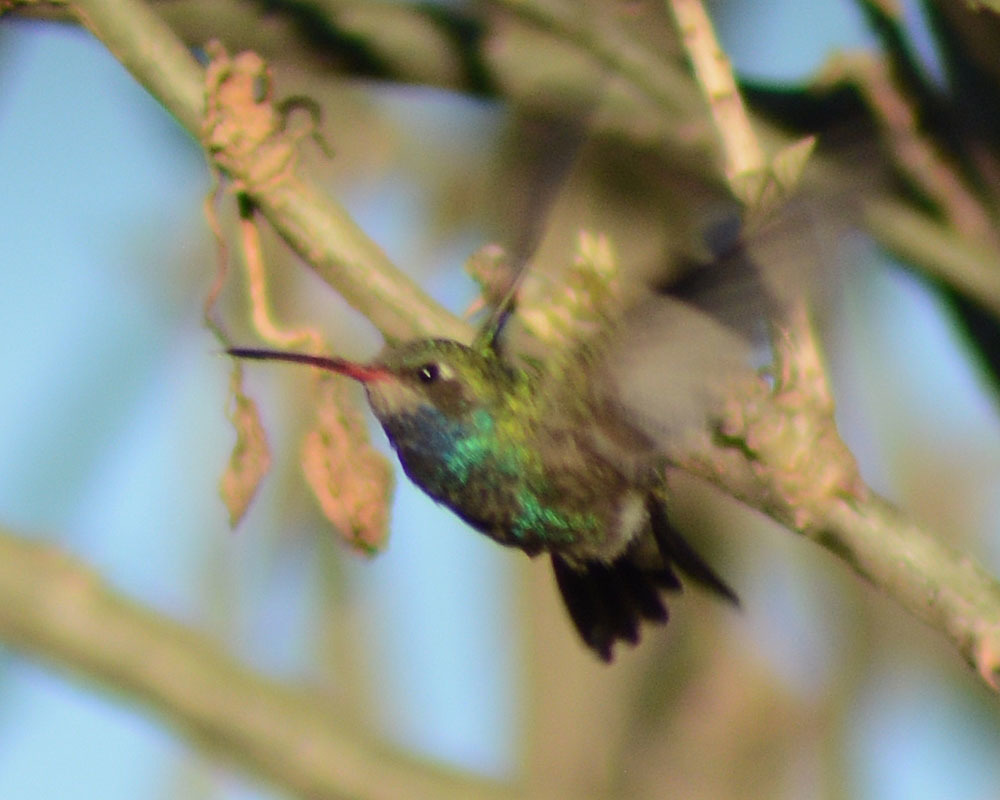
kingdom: Animalia
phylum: Chordata
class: Aves
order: Apodiformes
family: Trochilidae
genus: Cynanthus
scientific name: Cynanthus latirostris
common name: Broad-billed hummingbird
